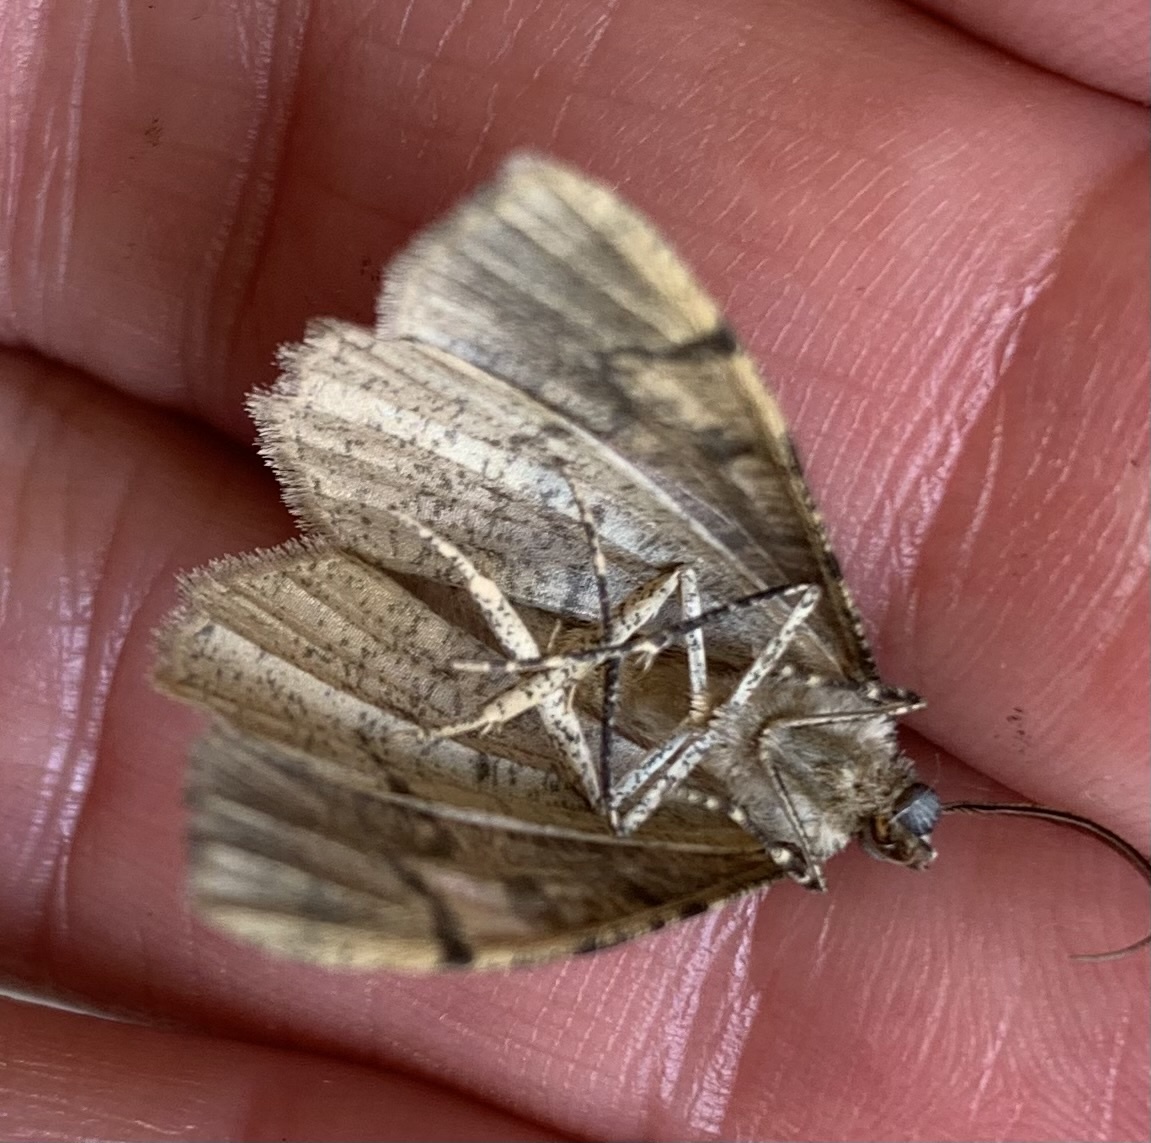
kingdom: Animalia
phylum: Arthropoda
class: Insecta
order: Lepidoptera
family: Geometridae
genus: Alcis
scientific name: Alcis repandata
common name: Mottled beauty
